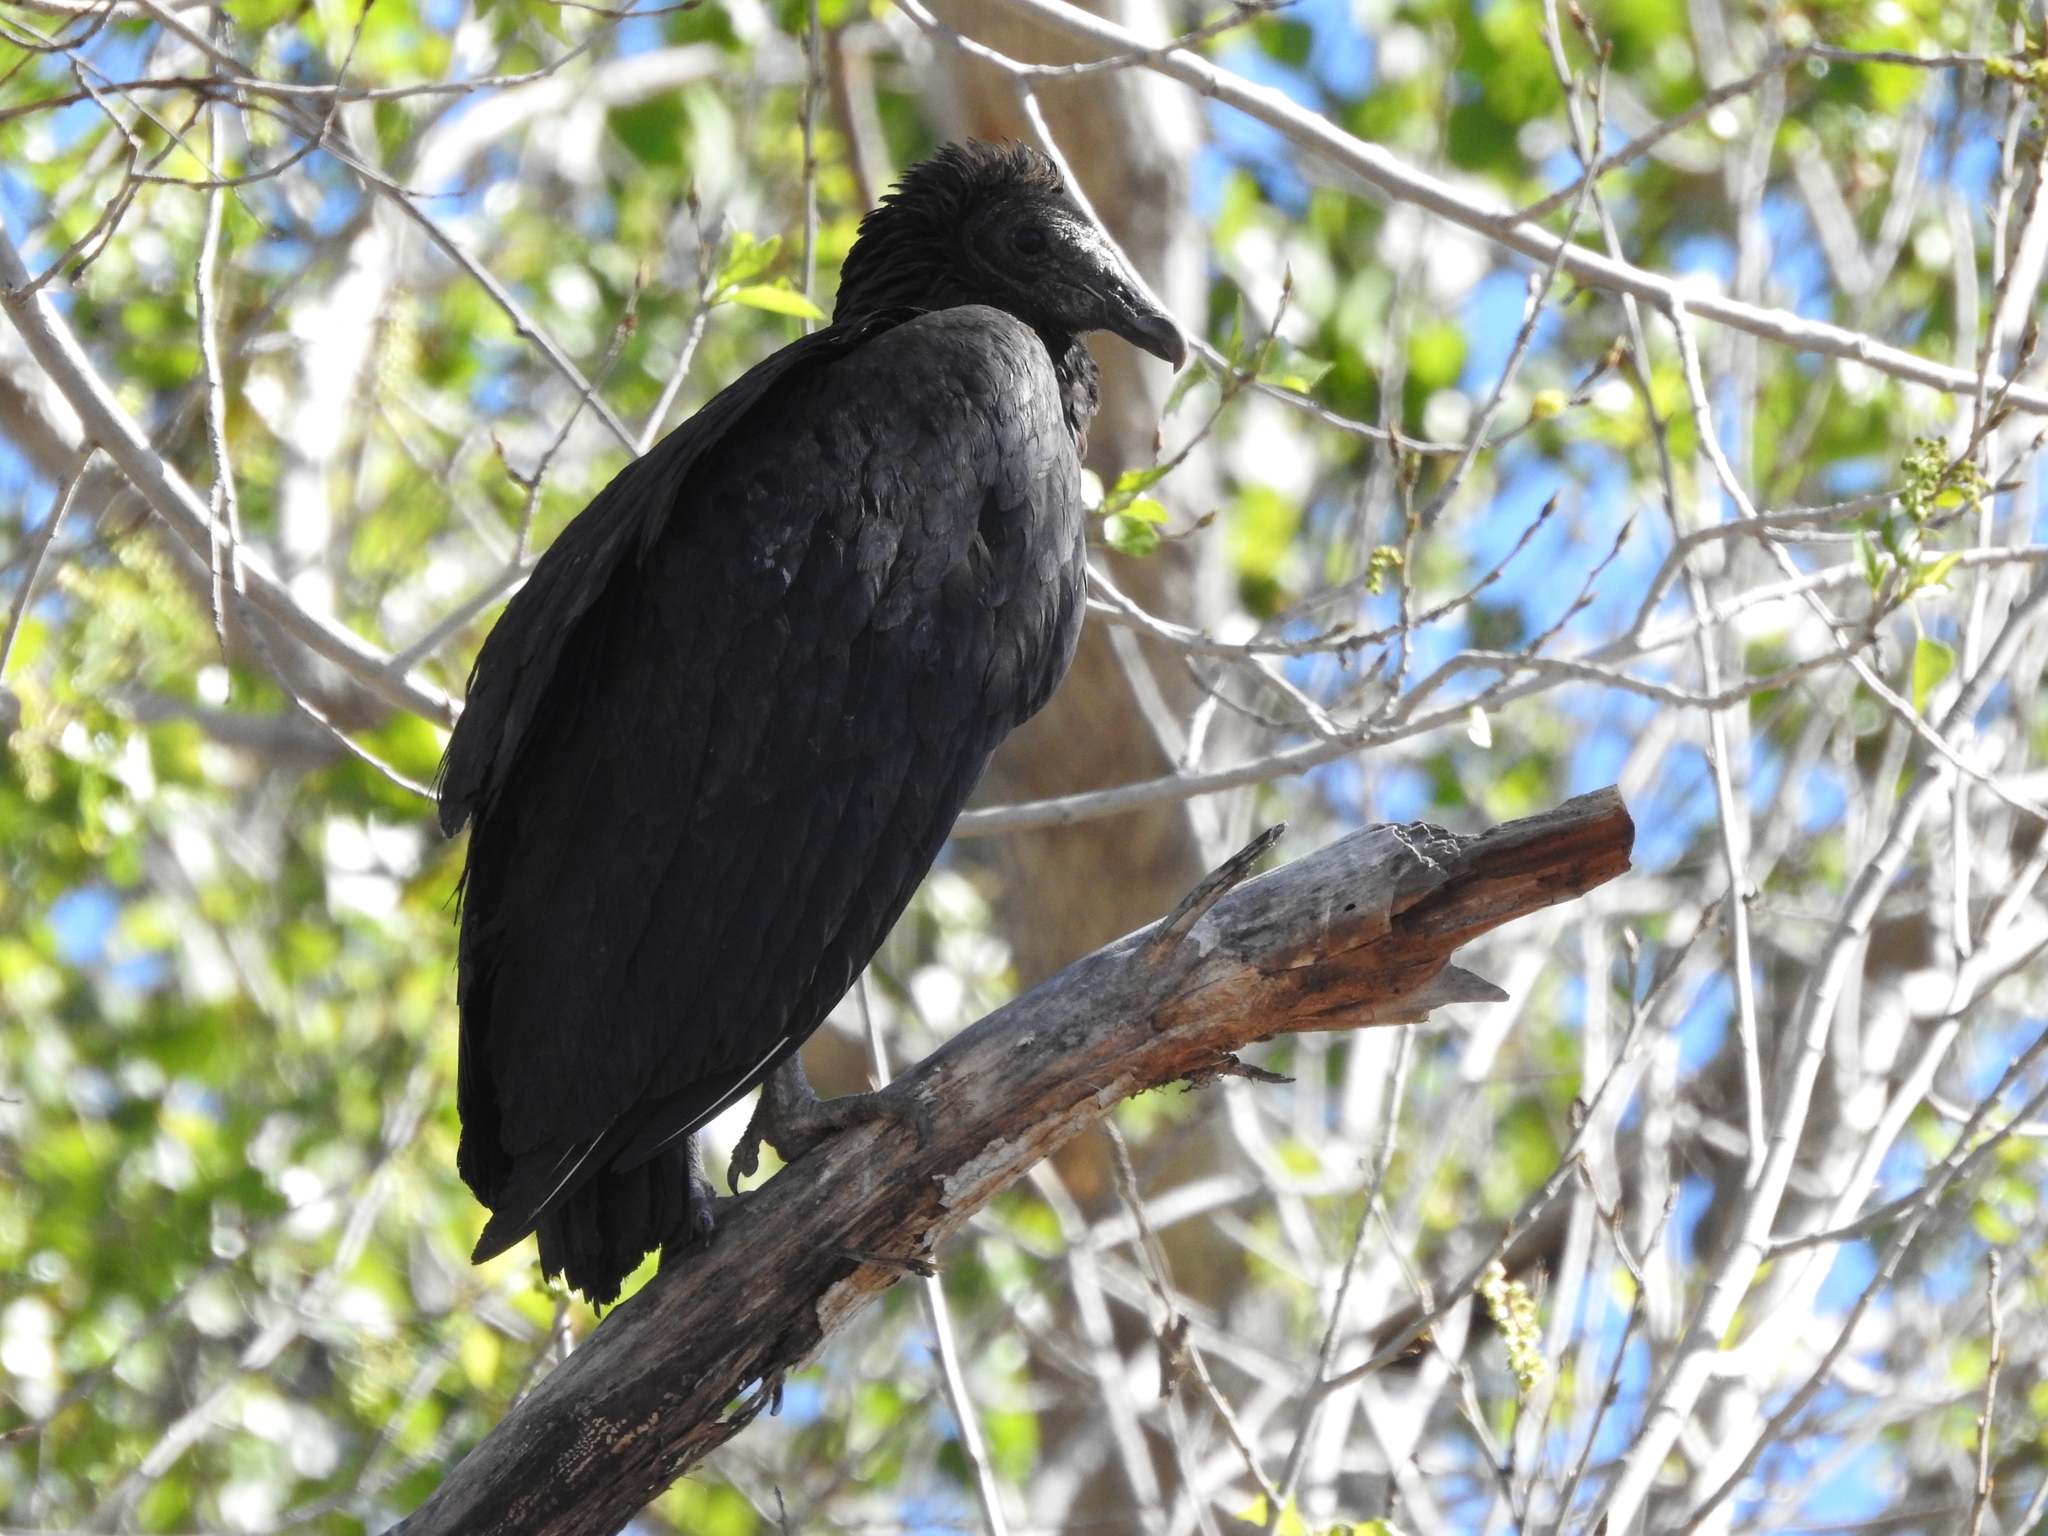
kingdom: Animalia
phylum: Chordata
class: Aves
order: Accipitriformes
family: Cathartidae
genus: Coragyps
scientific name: Coragyps atratus
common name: Black vulture
